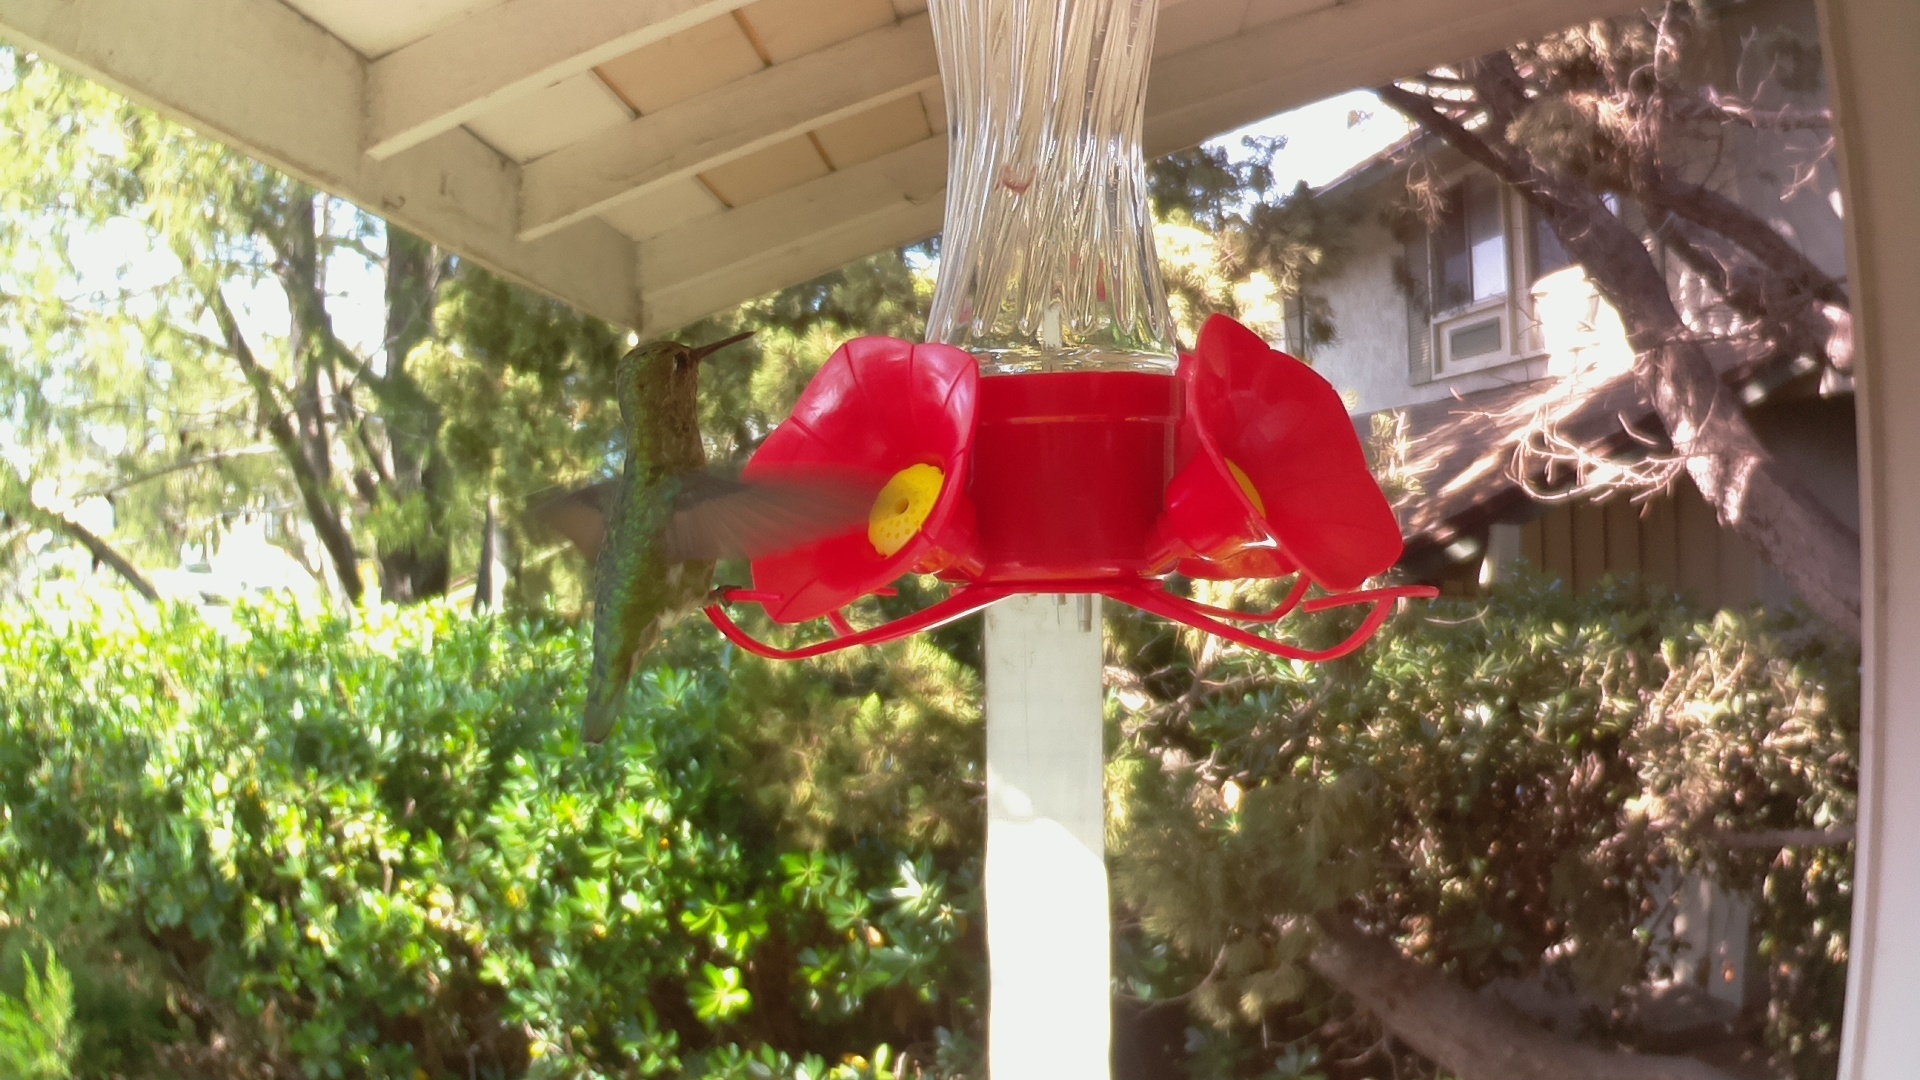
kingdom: Animalia
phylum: Chordata
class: Aves
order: Apodiformes
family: Trochilidae
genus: Calypte
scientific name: Calypte anna
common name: Anna's hummingbird
